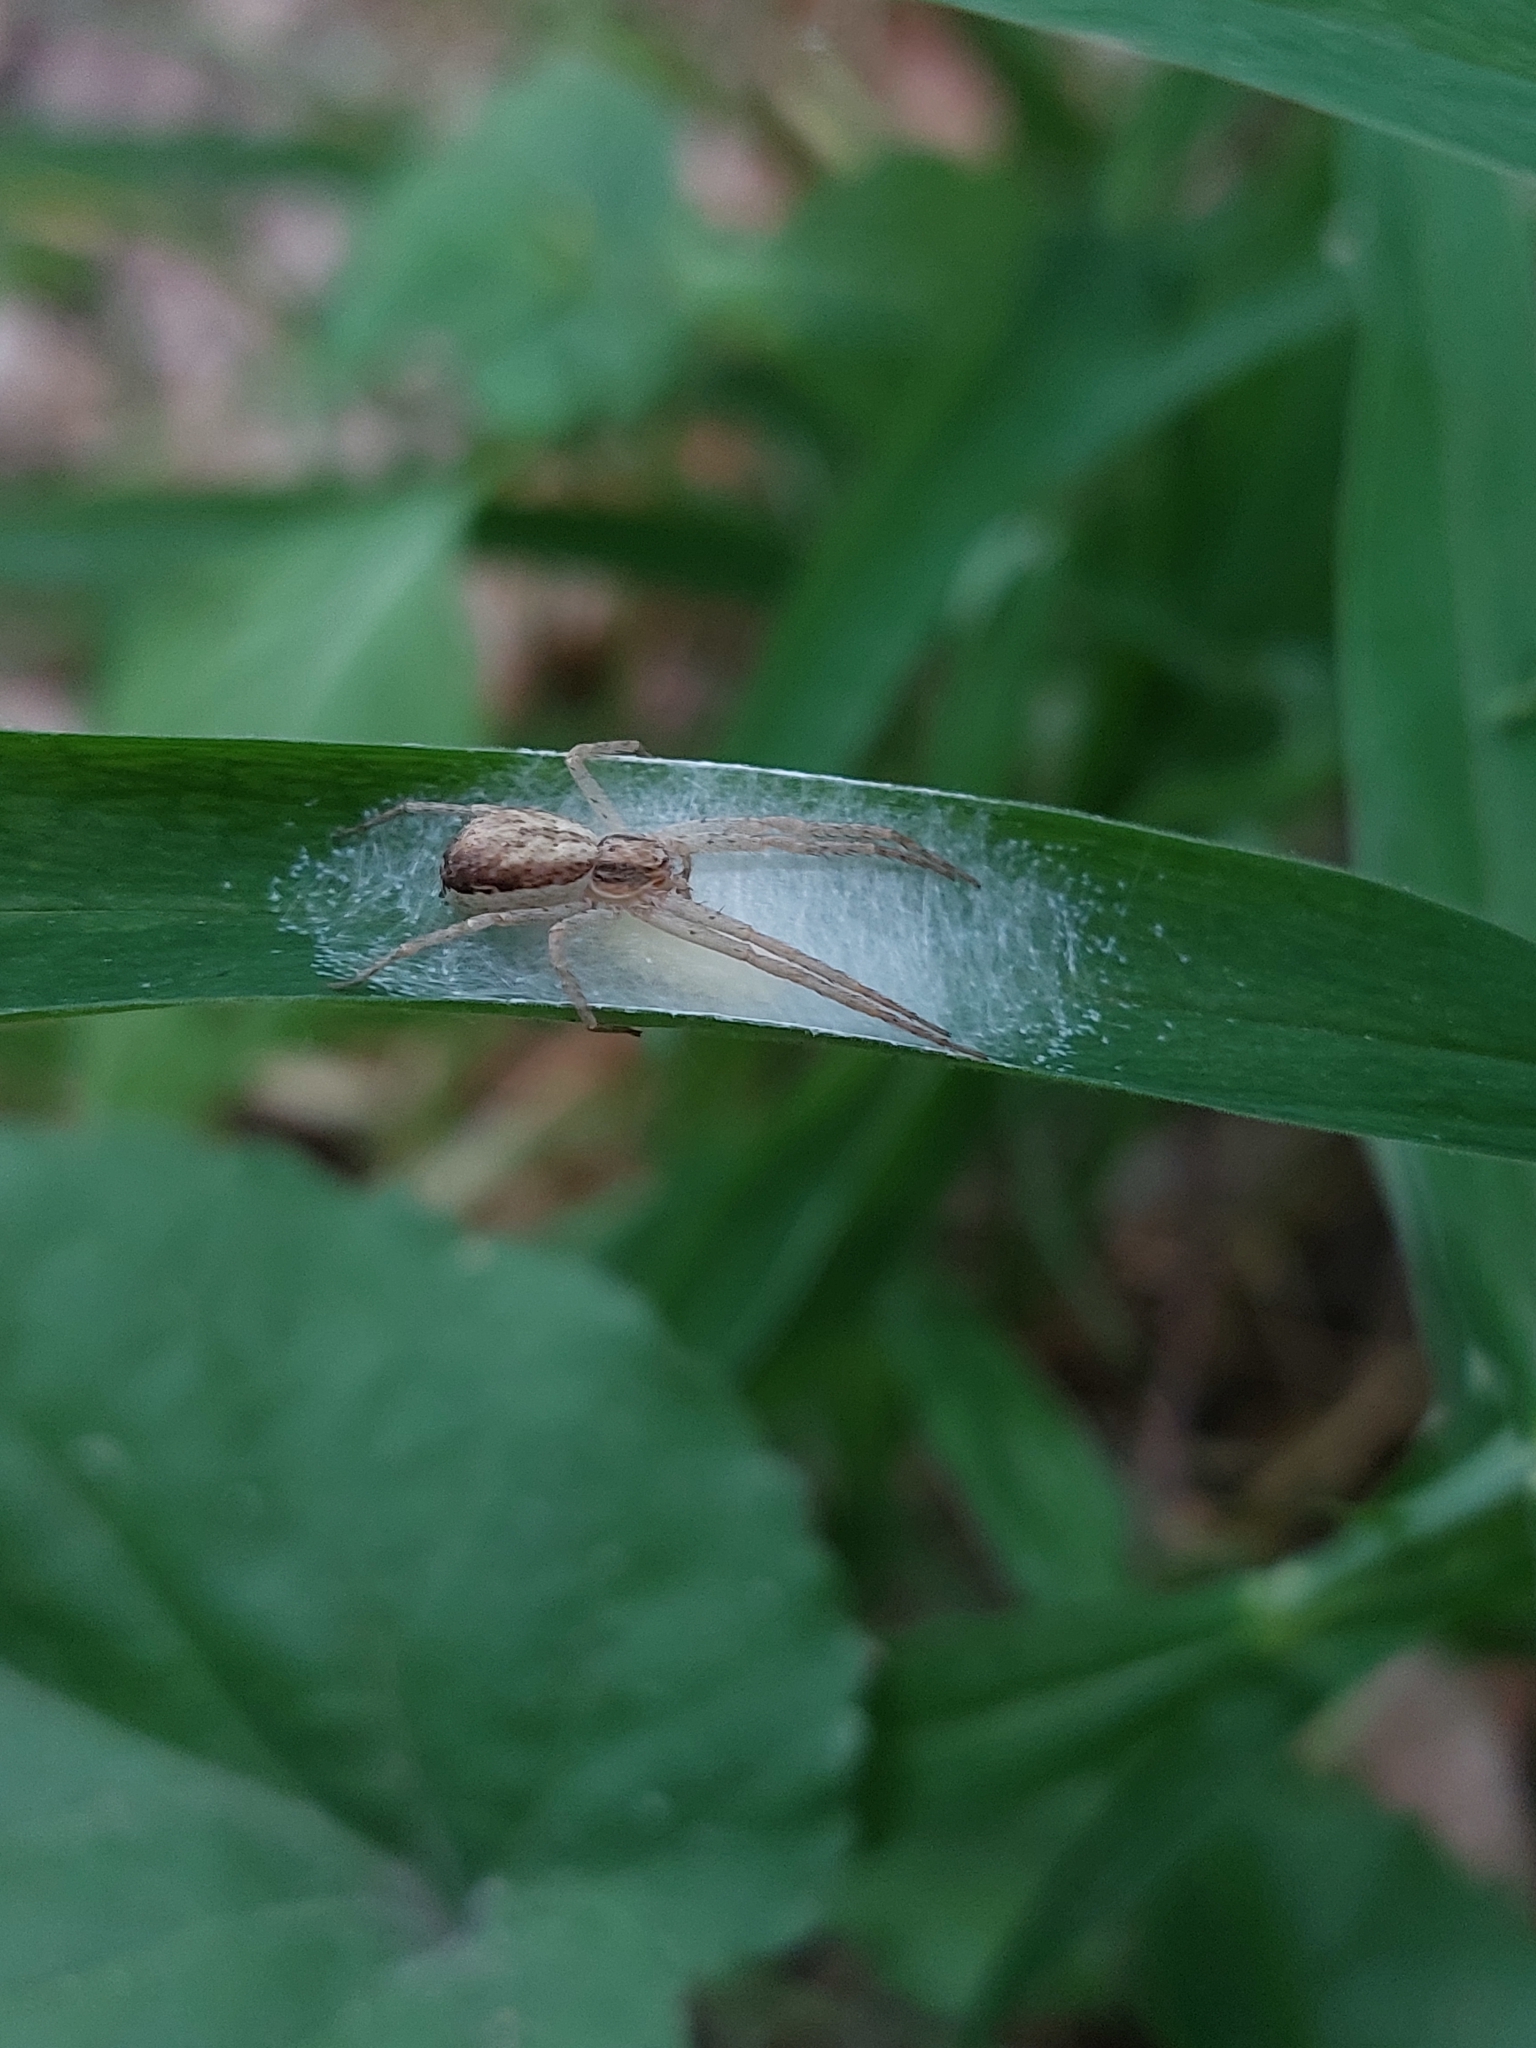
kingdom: Animalia
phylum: Arthropoda
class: Arachnida
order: Araneae
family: Philodromidae
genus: Philodromus
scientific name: Philodromus dispar
